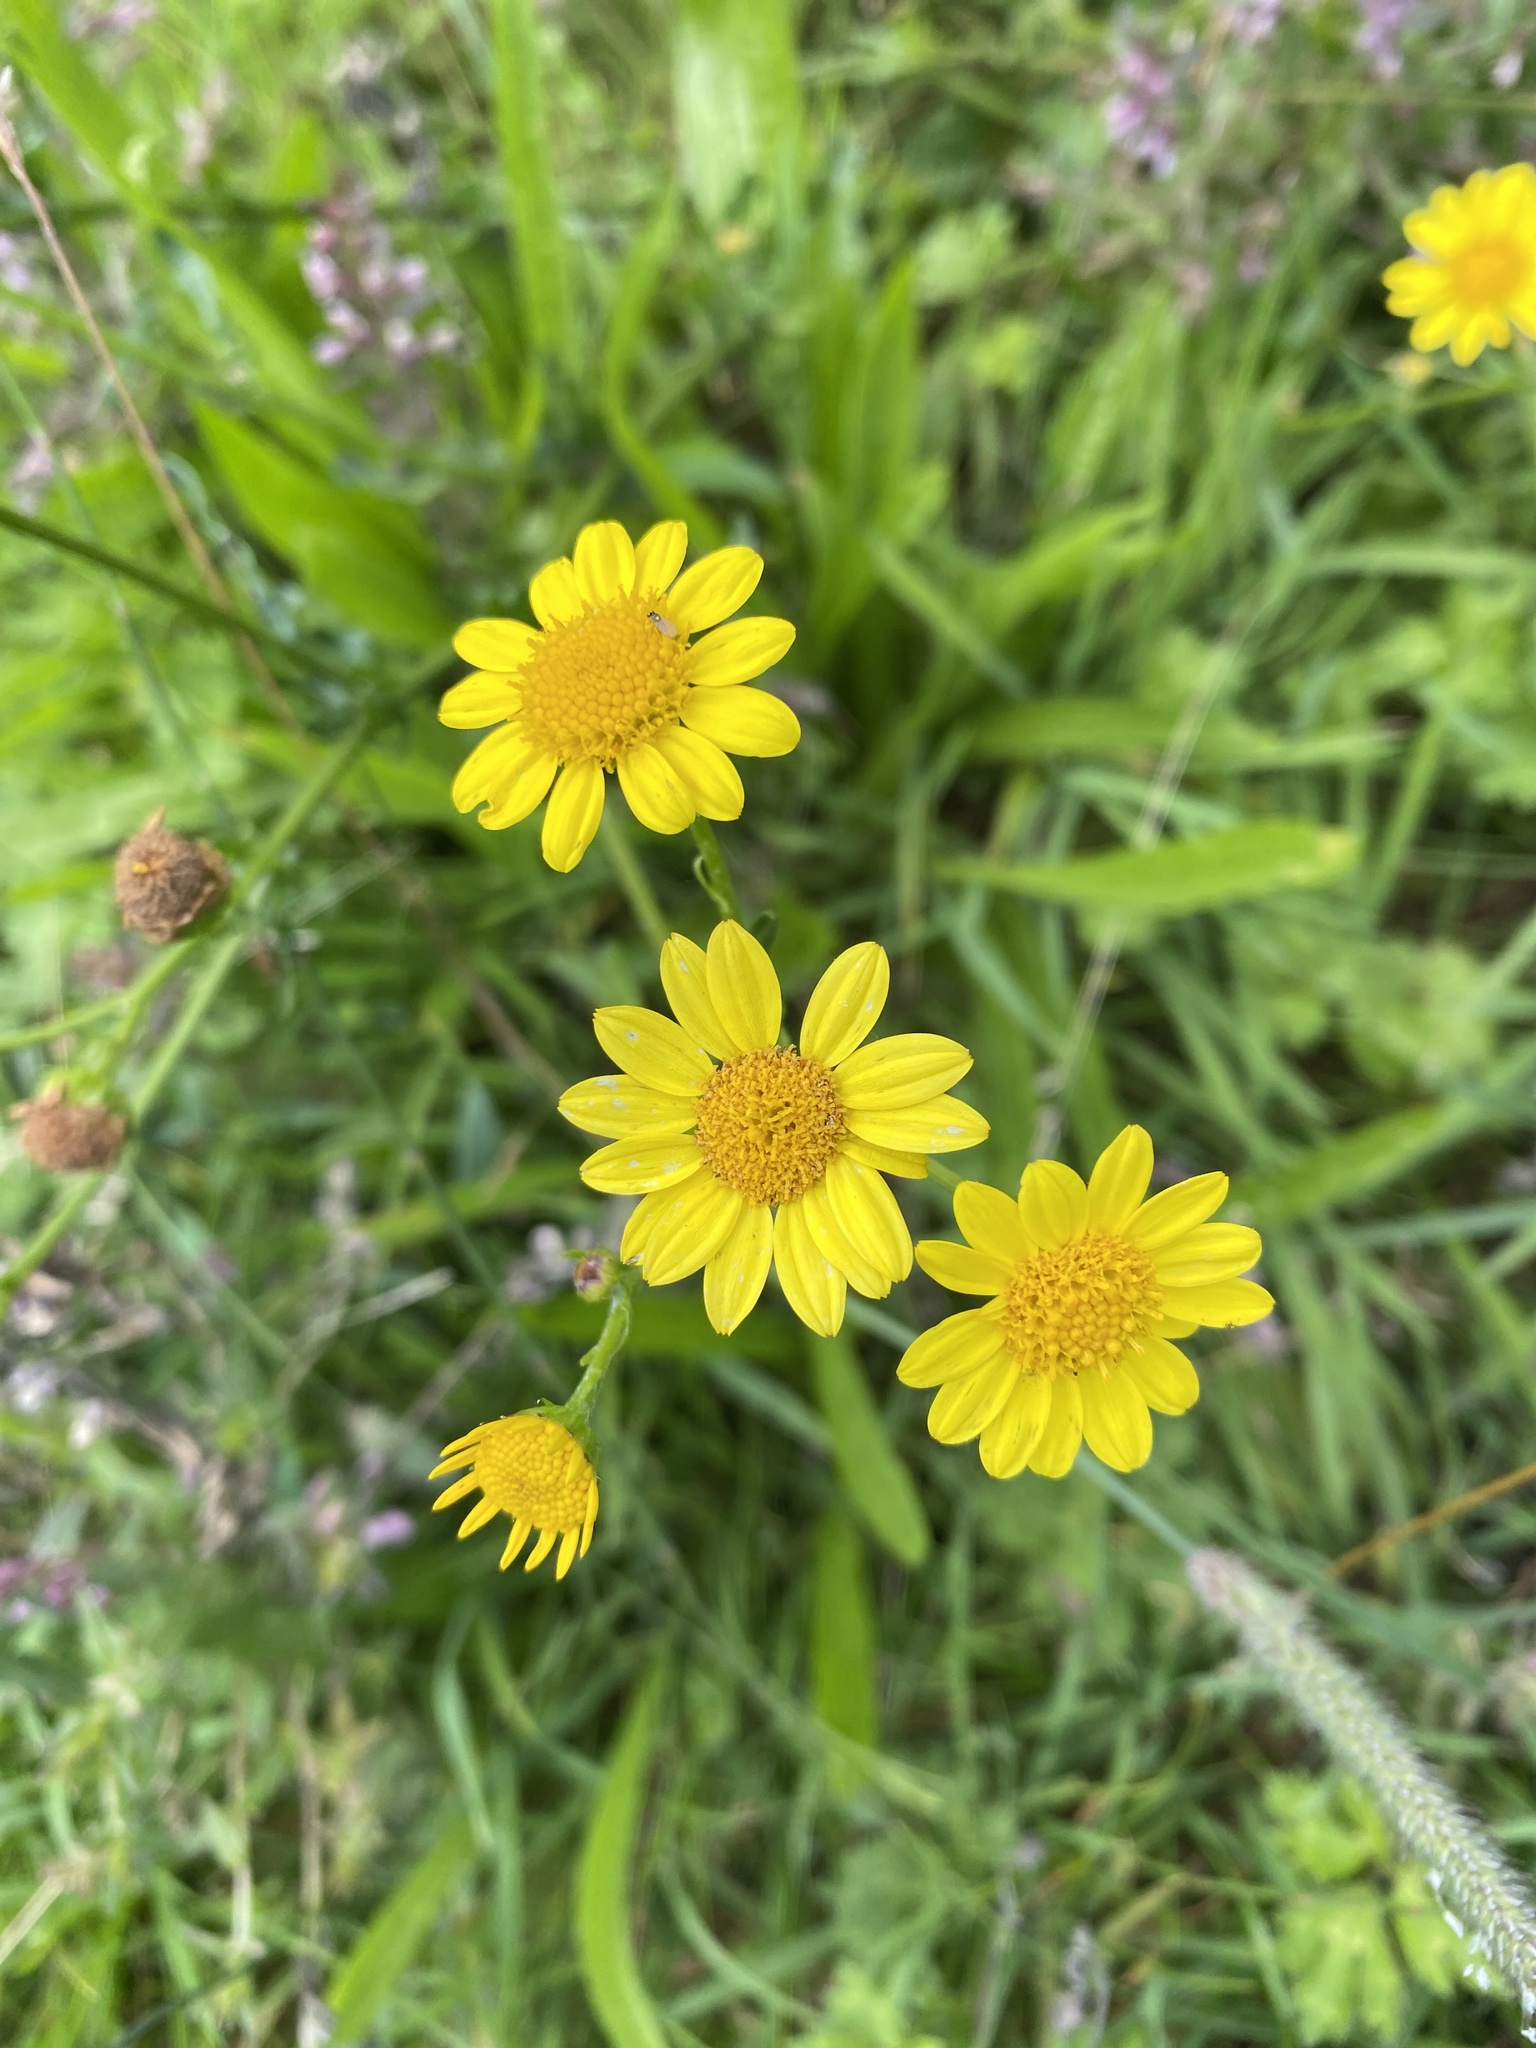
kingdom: Plantae
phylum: Tracheophyta
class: Magnoliopsida
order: Asterales
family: Asteraceae
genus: Glebionis
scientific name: Glebionis segetum
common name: Corndaisy
